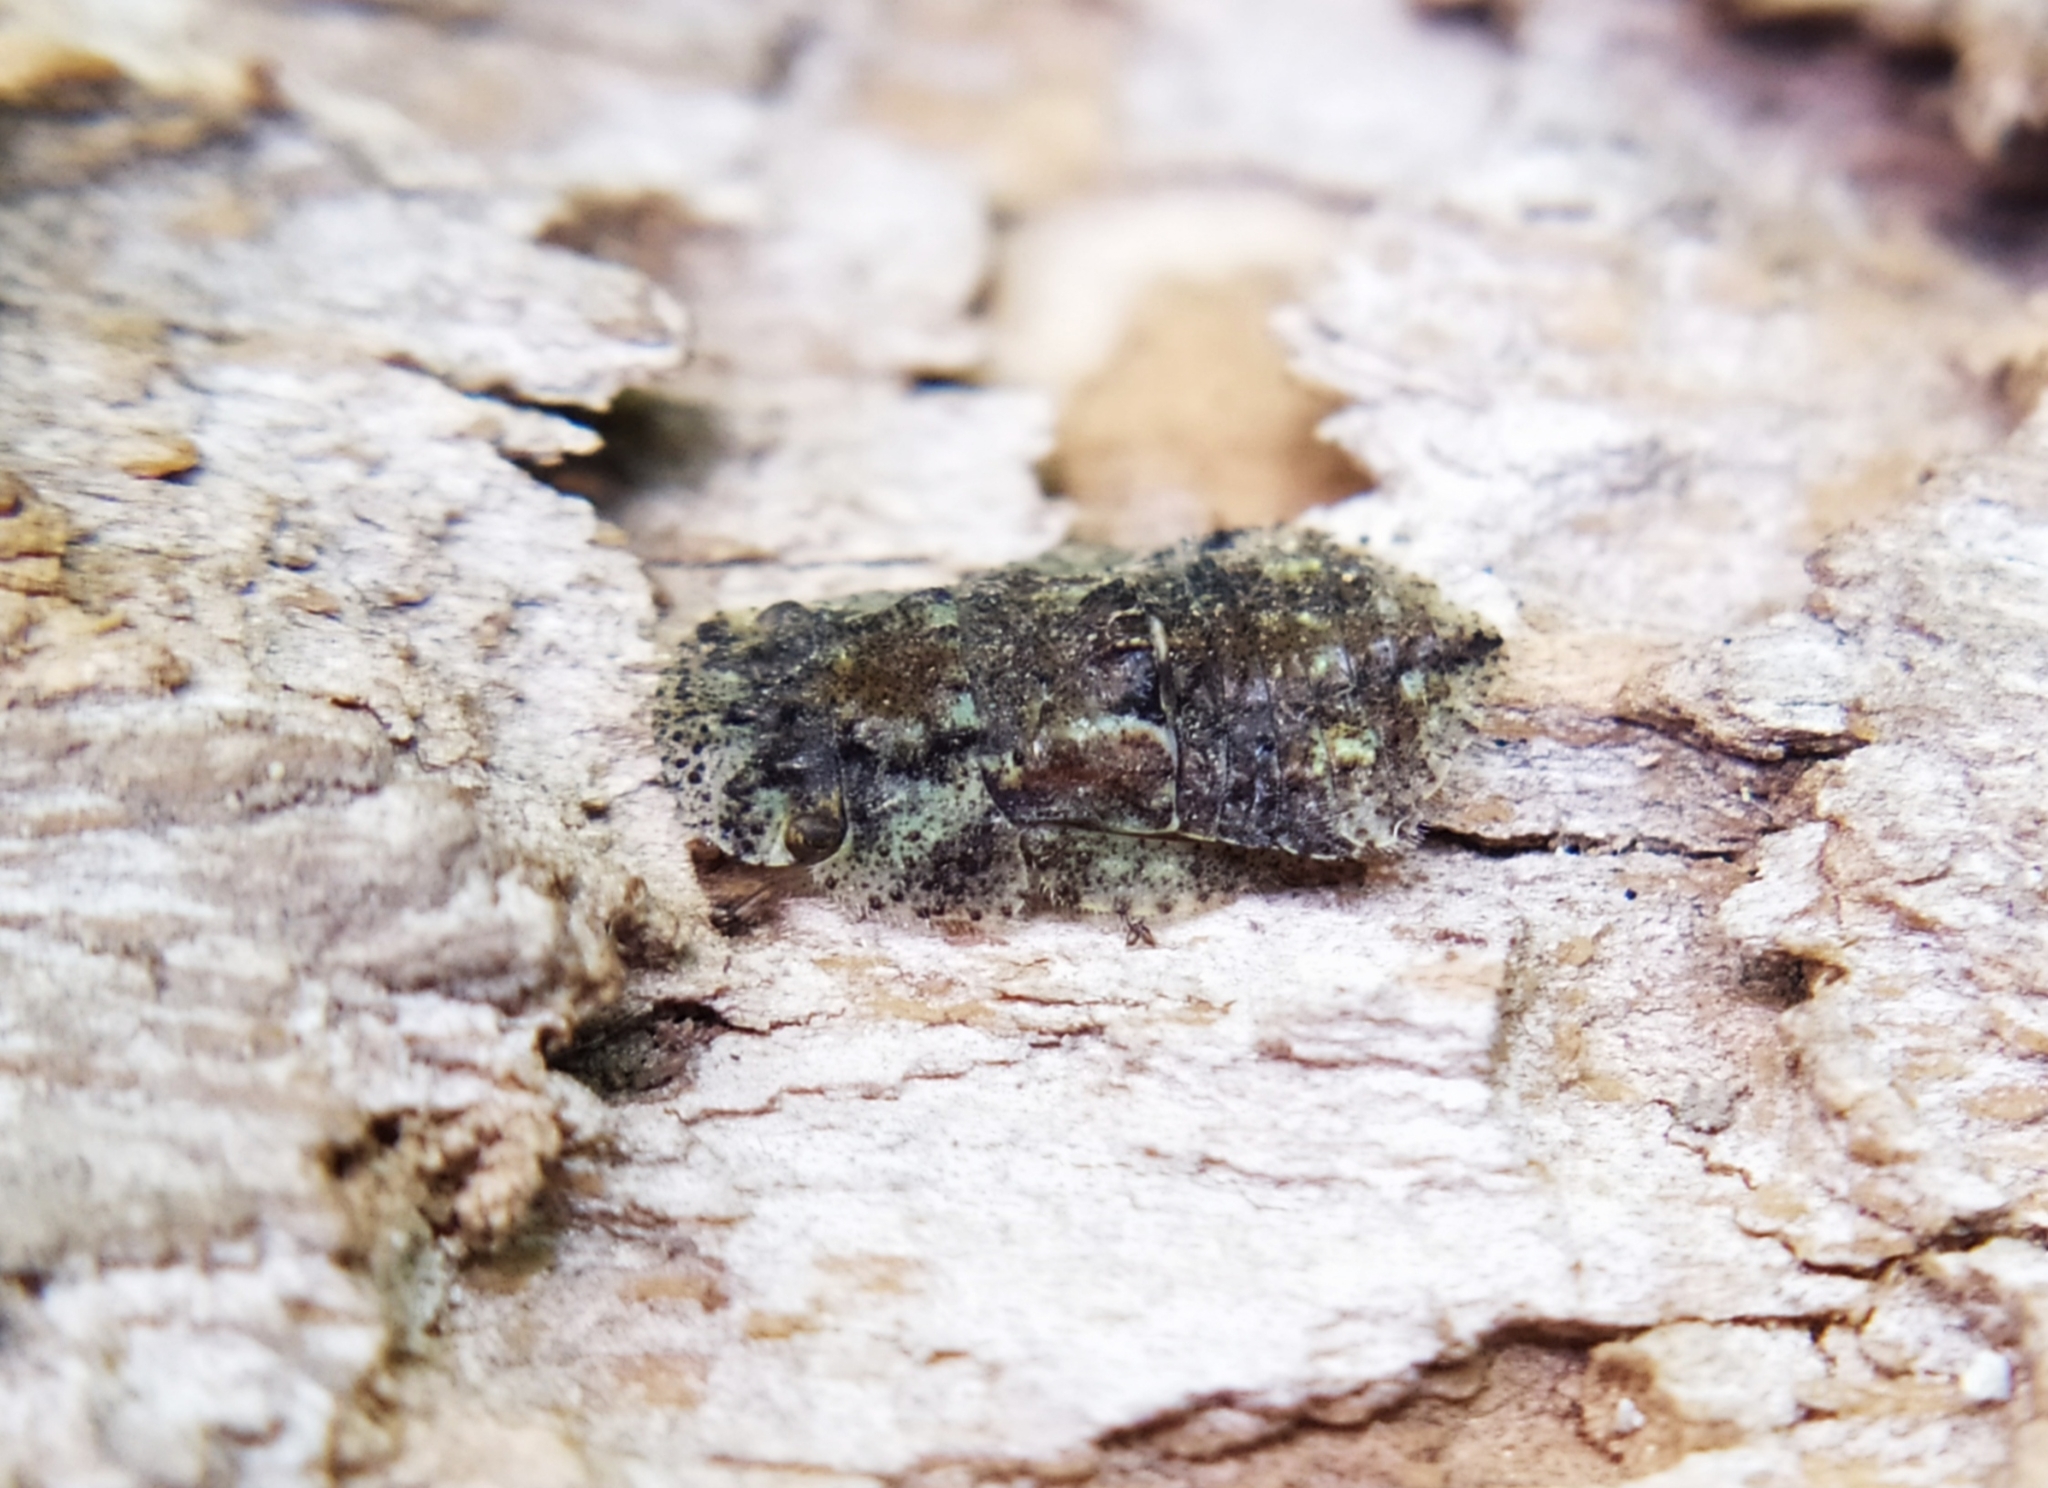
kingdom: Animalia
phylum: Arthropoda
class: Insecta
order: Hemiptera
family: Cicadellidae
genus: Ledra
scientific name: Ledra aurita
